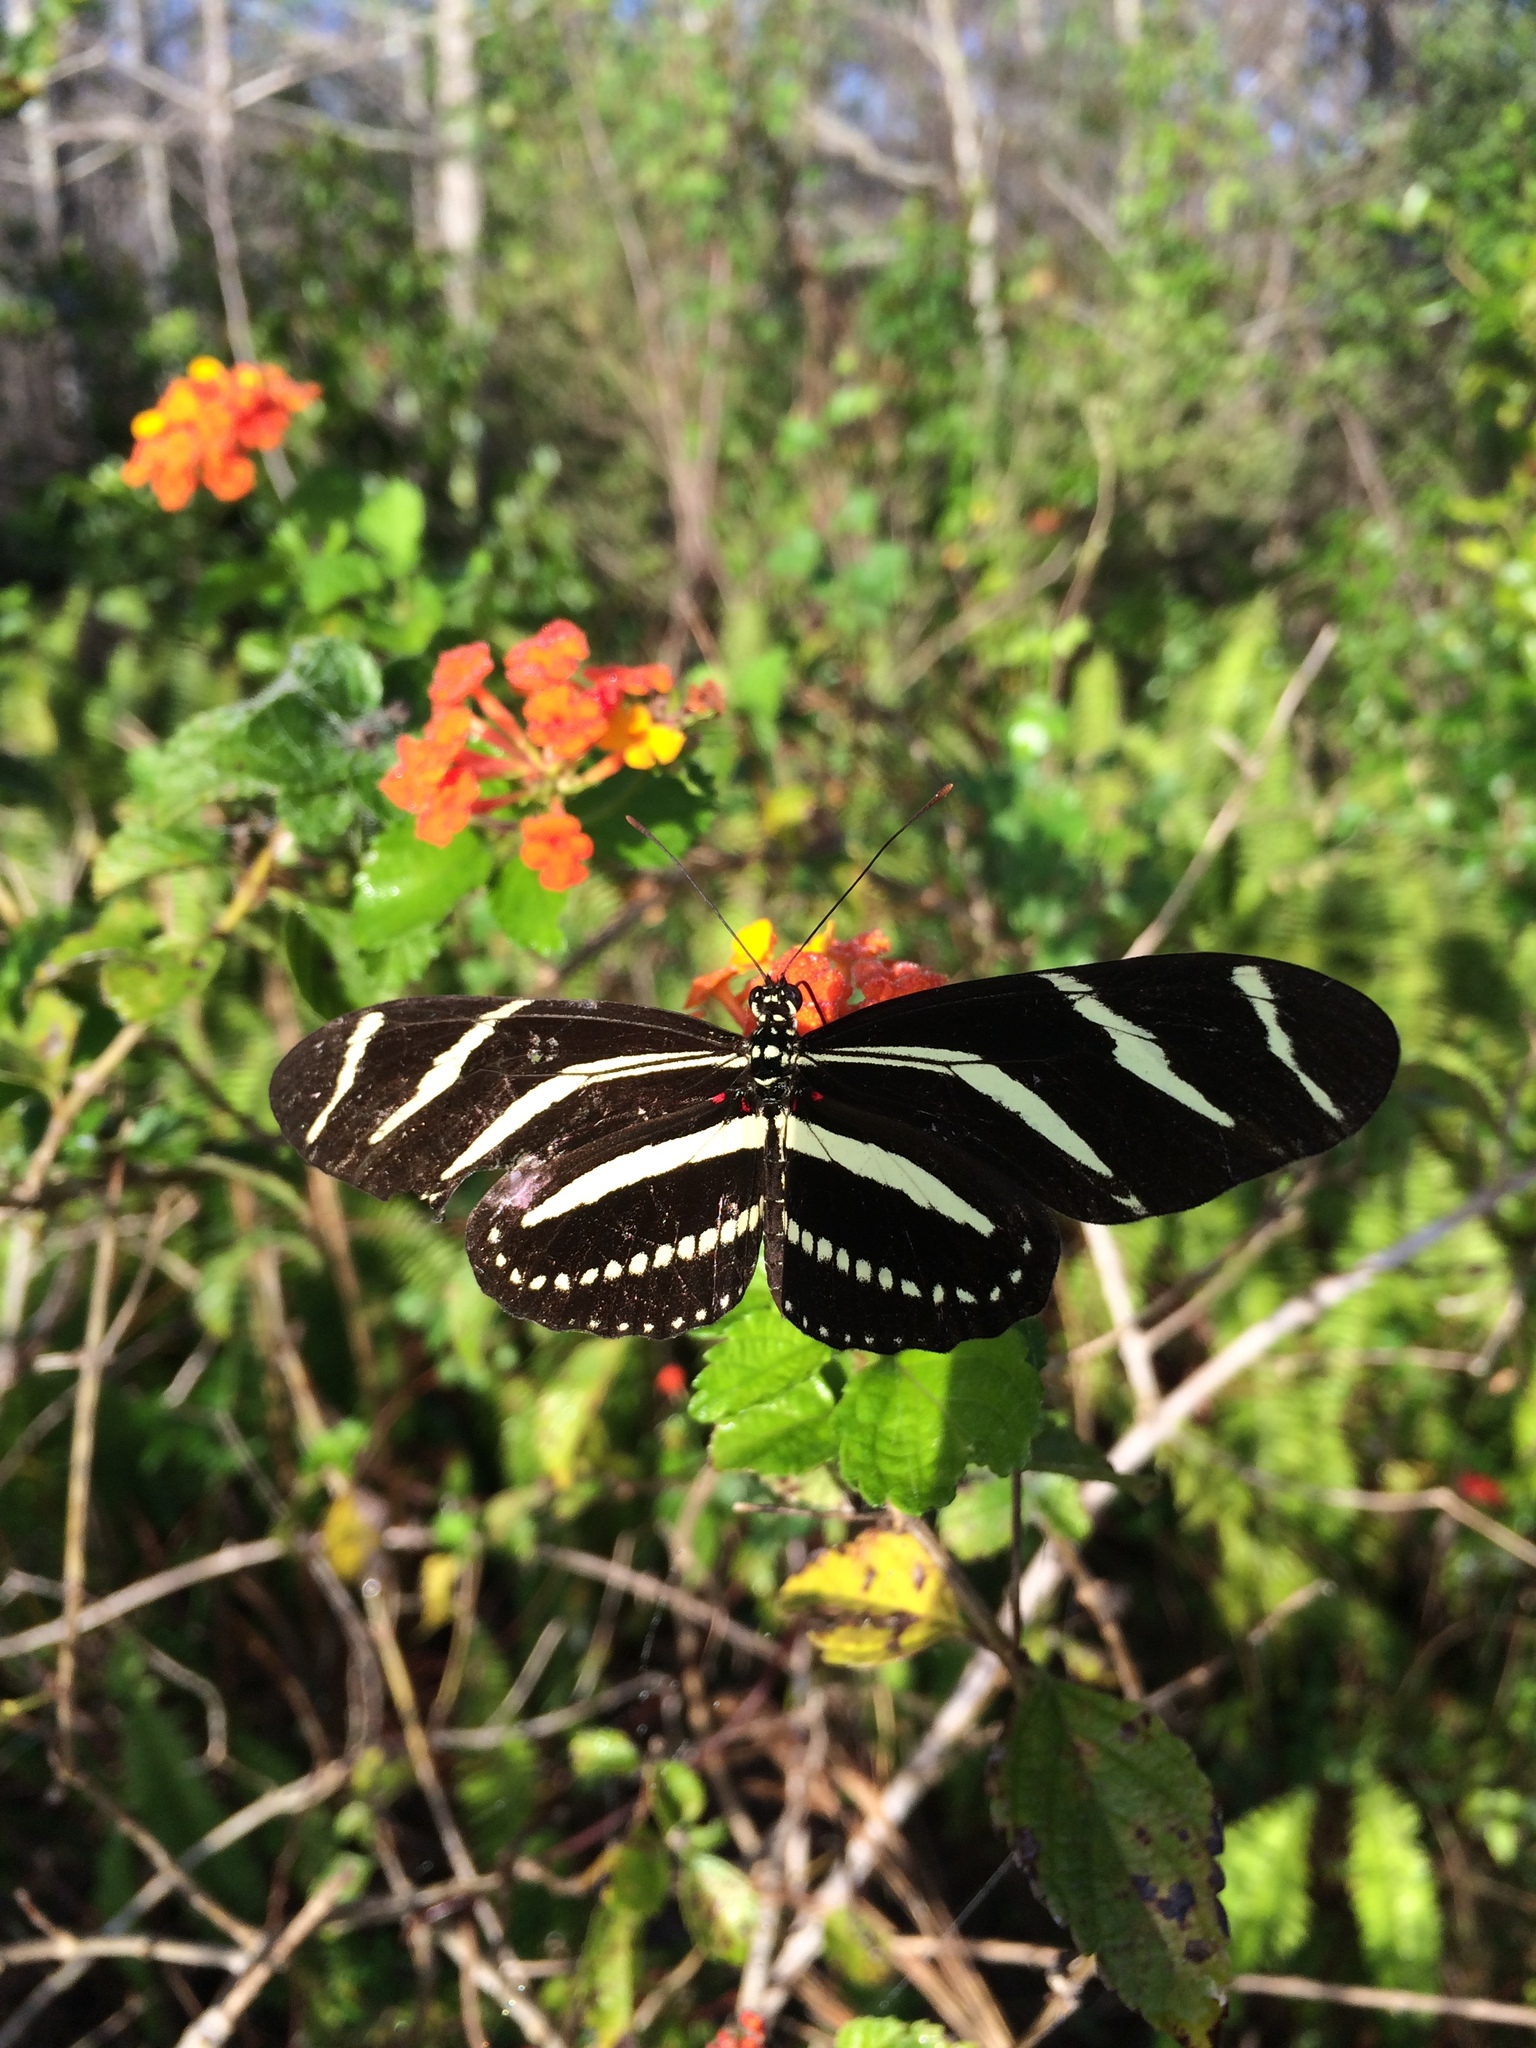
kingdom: Animalia
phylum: Arthropoda
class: Insecta
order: Lepidoptera
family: Nymphalidae
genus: Heliconius
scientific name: Heliconius charithonia
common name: Zebra long wing
